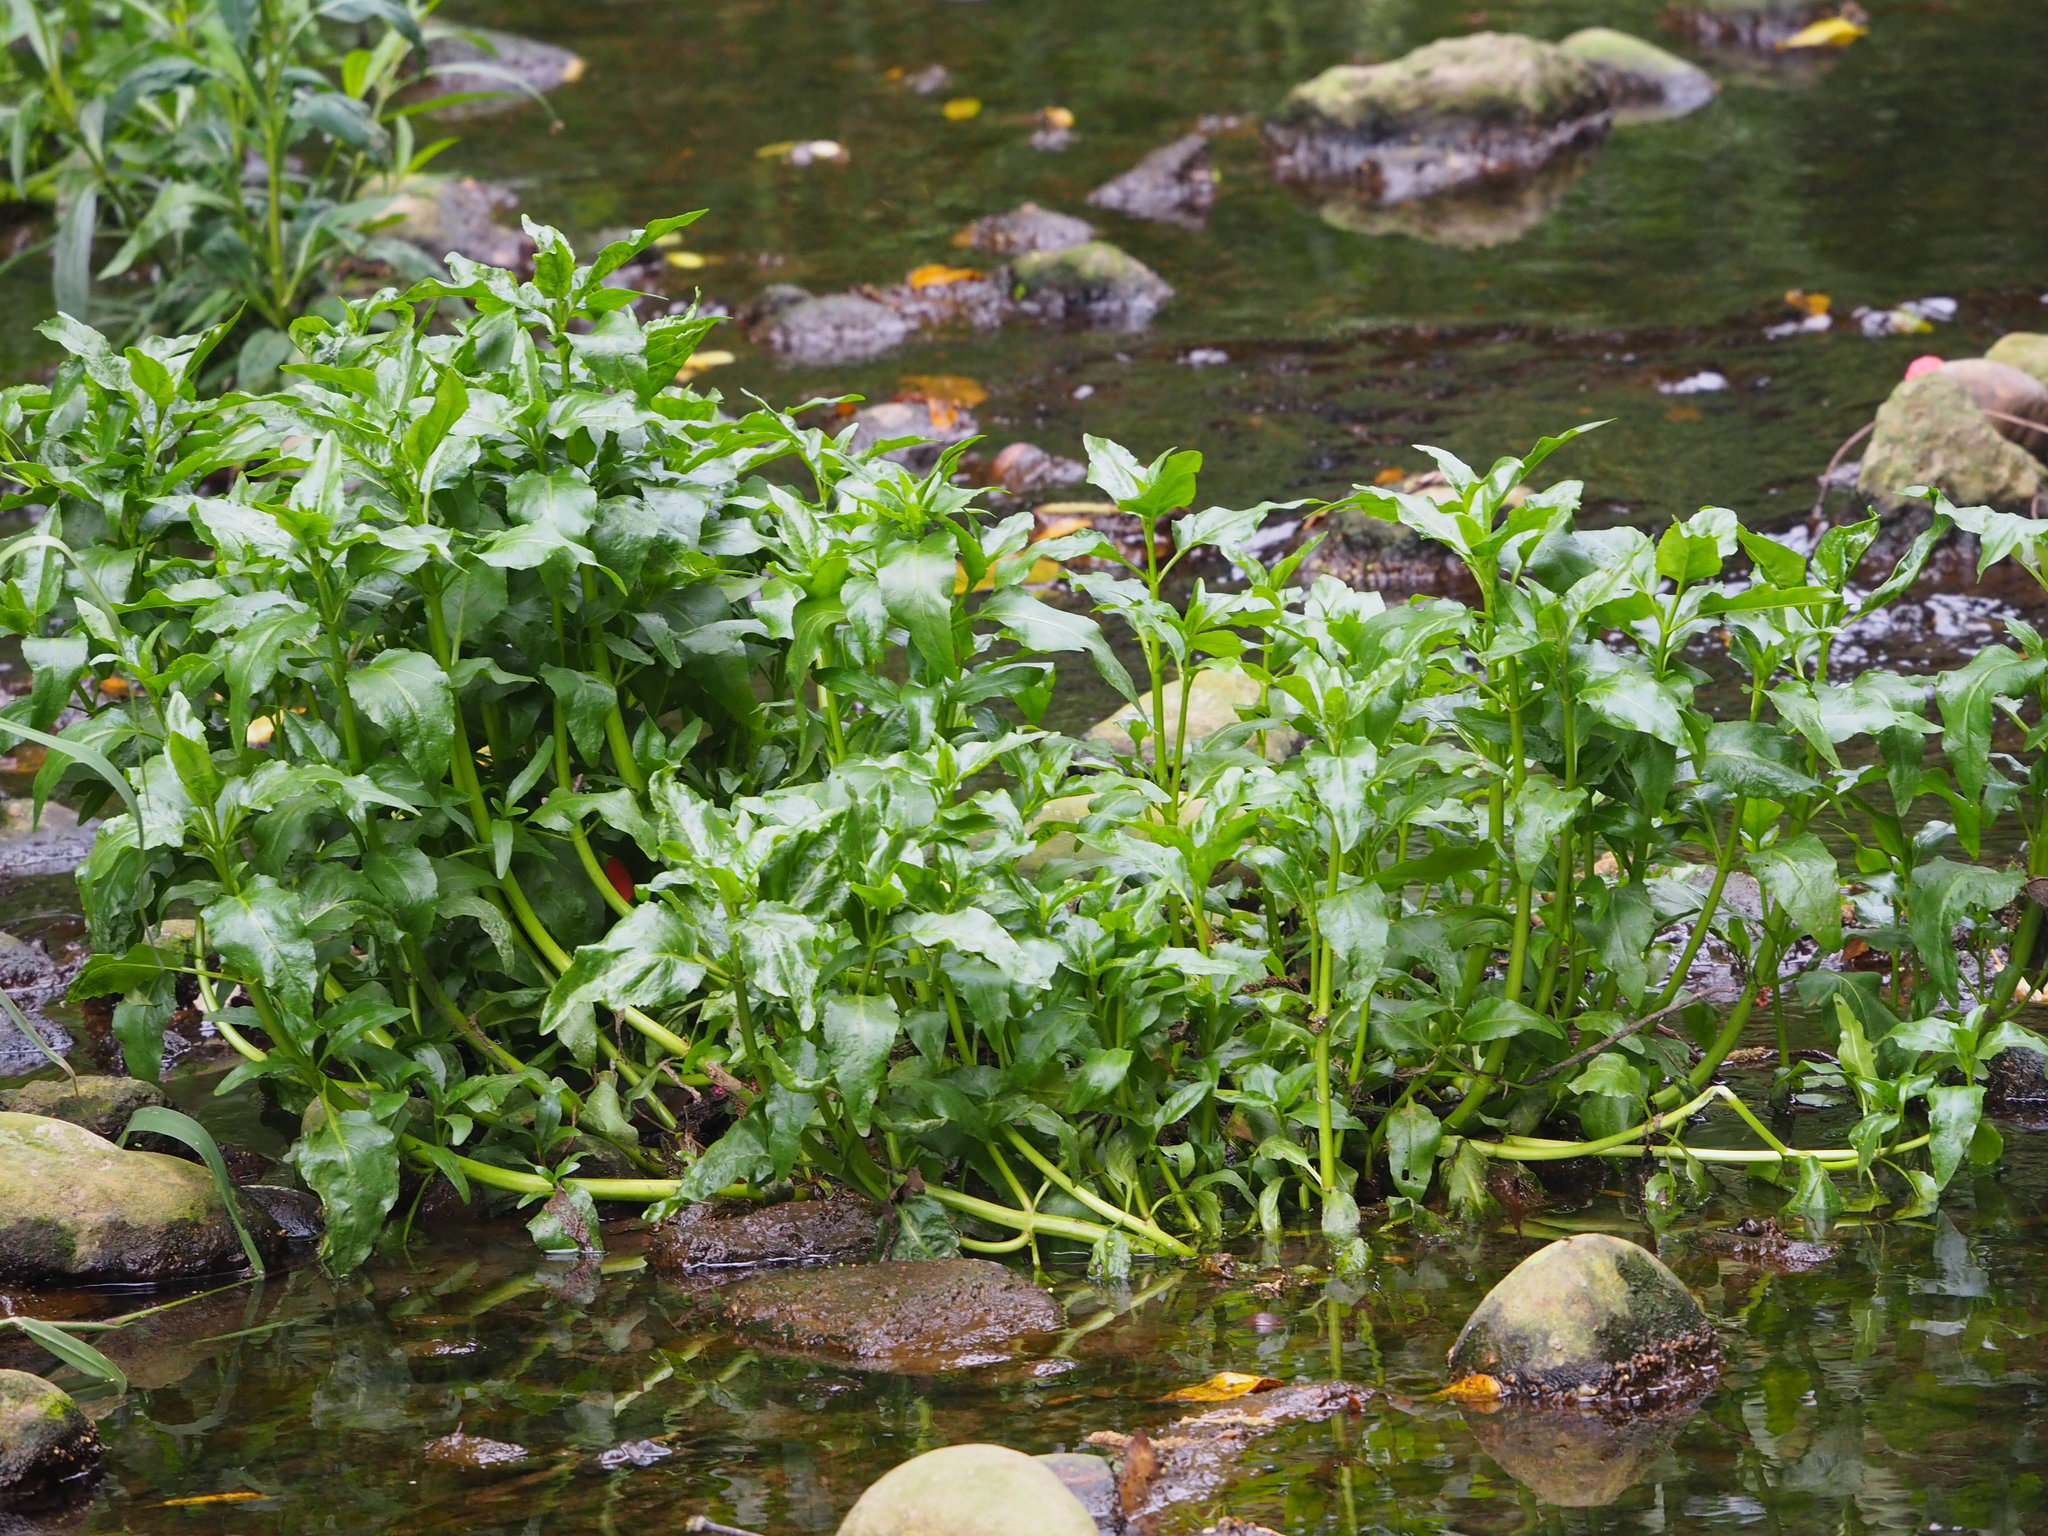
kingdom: Plantae
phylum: Tracheophyta
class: Magnoliopsida
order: Asterales
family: Asteraceae
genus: Gymnocoronis
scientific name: Gymnocoronis spilanthoides
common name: Senegal teaplant
